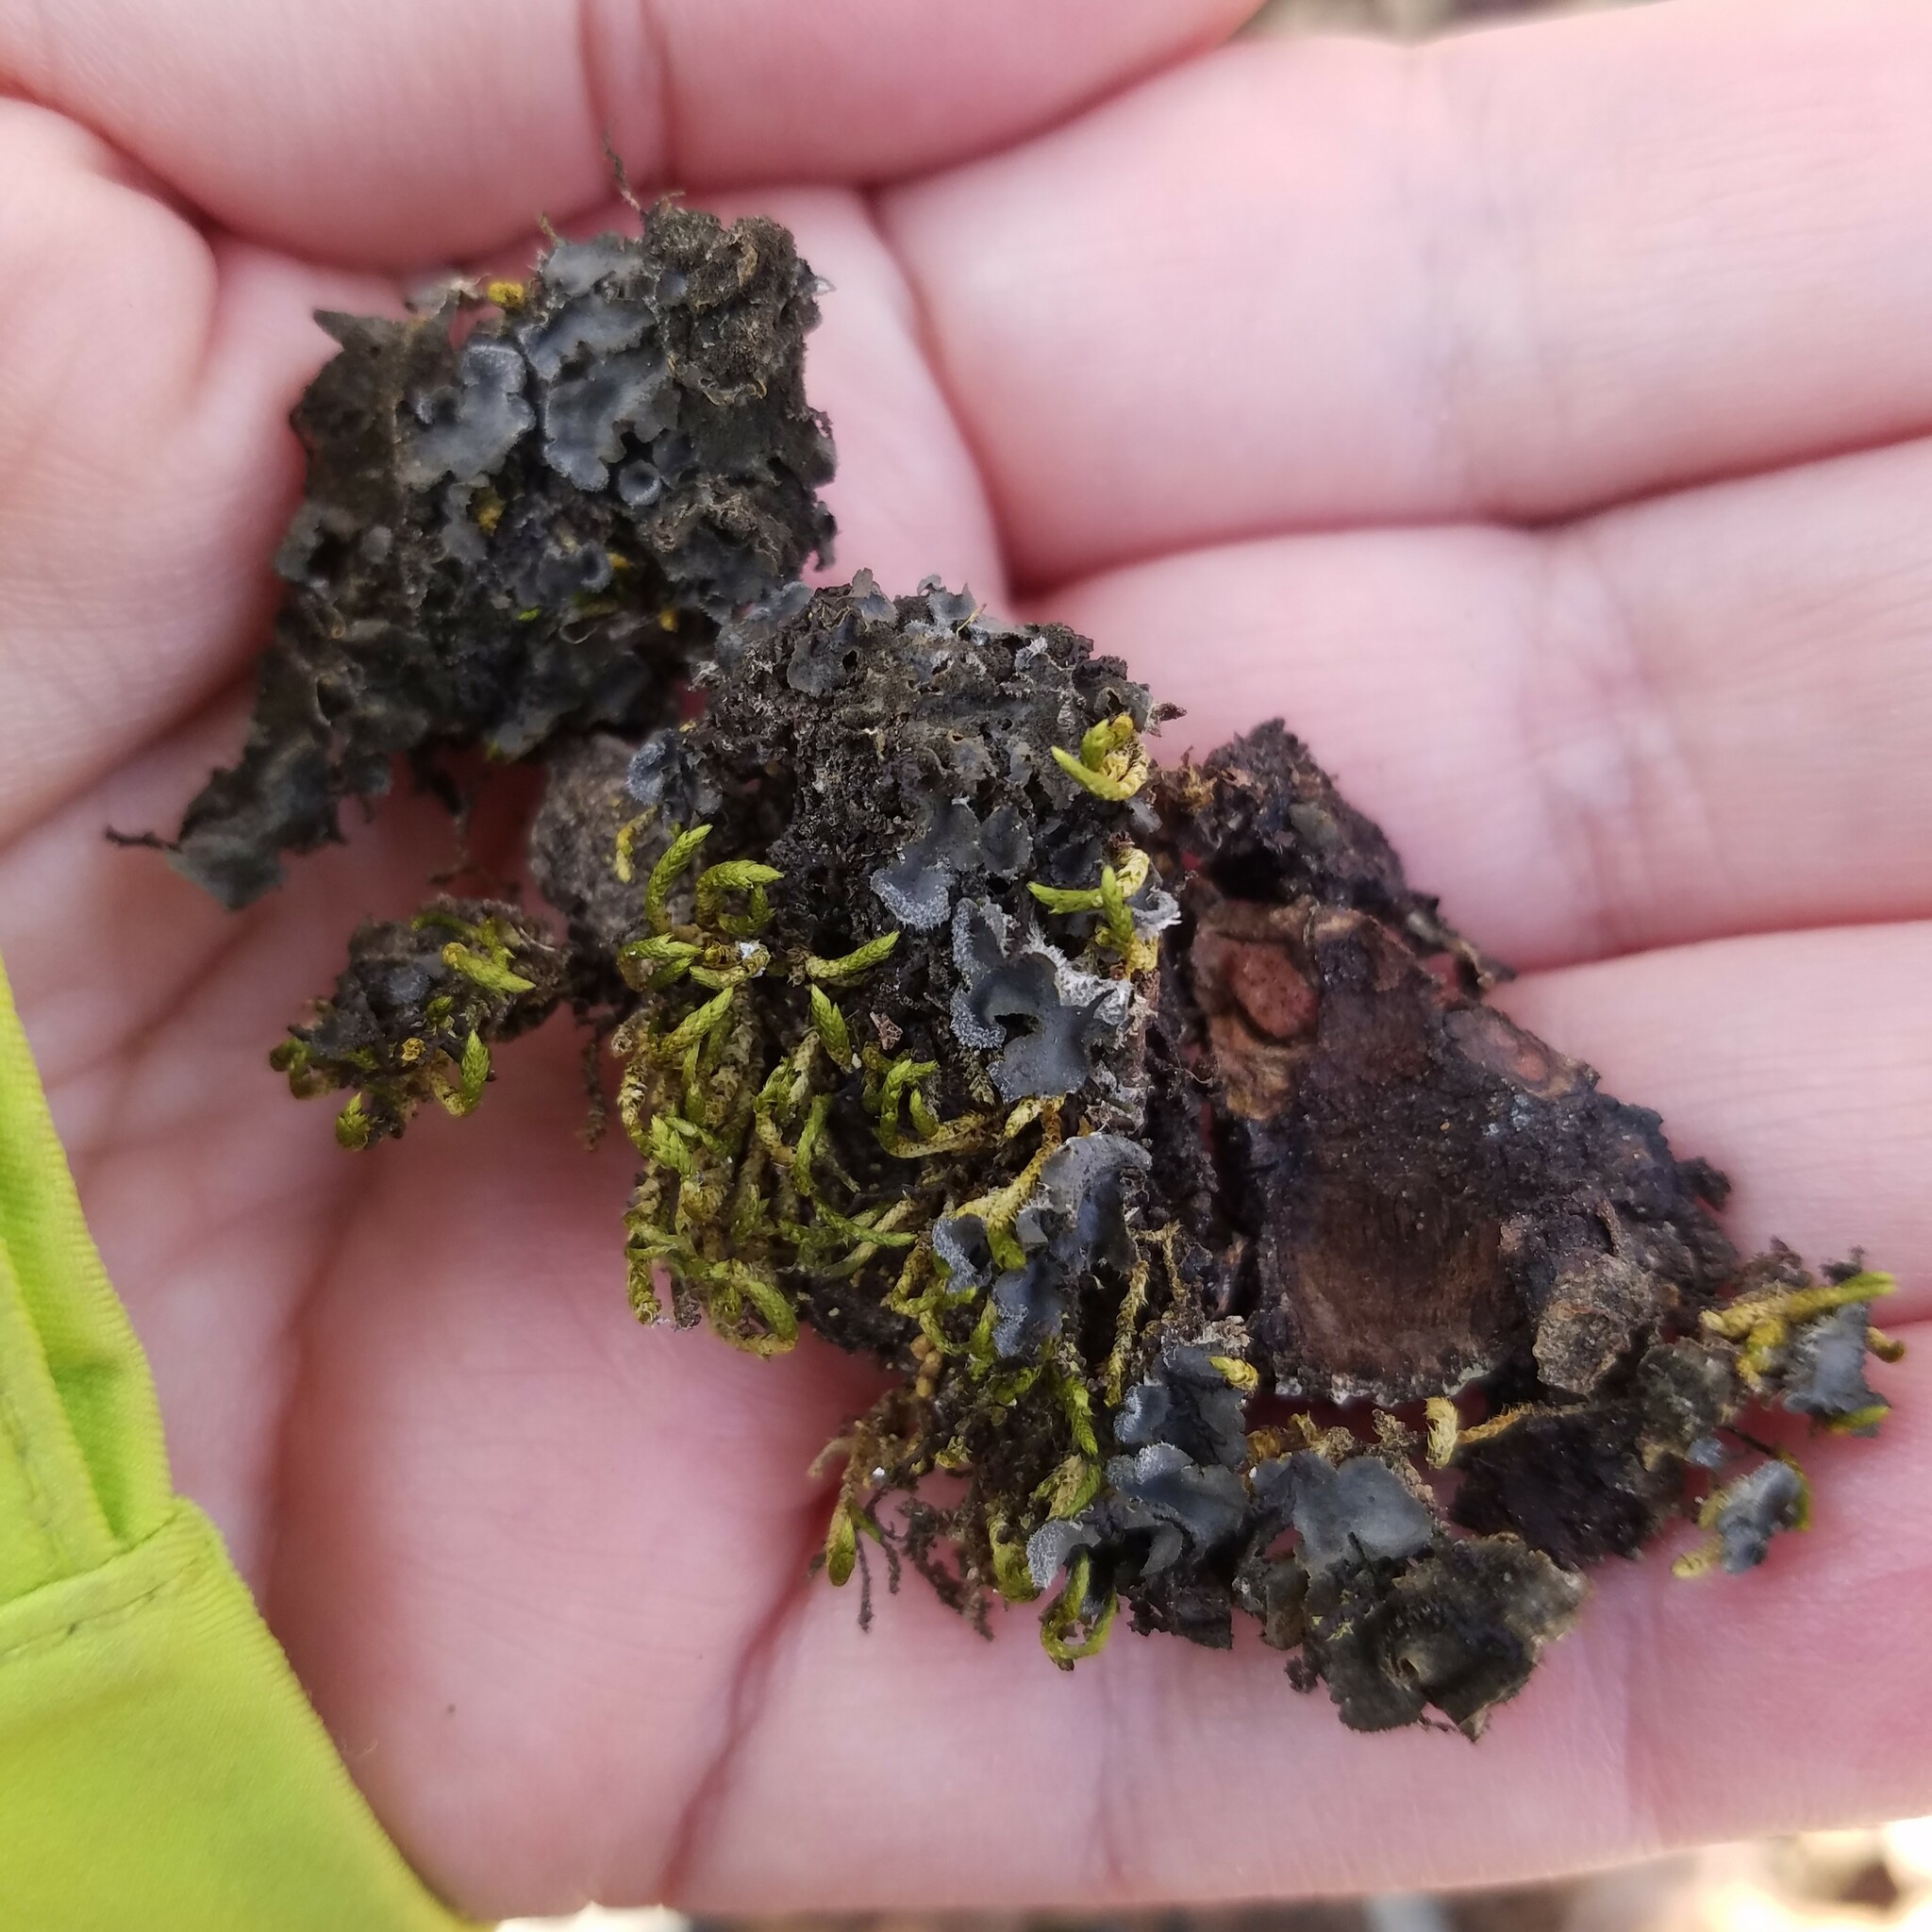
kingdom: Fungi
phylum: Ascomycota
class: Lecanoromycetes
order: Peltigerales
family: Collemataceae
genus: Leptogium
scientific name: Leptogium hirsutum
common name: Hairy jellyskin lichen
